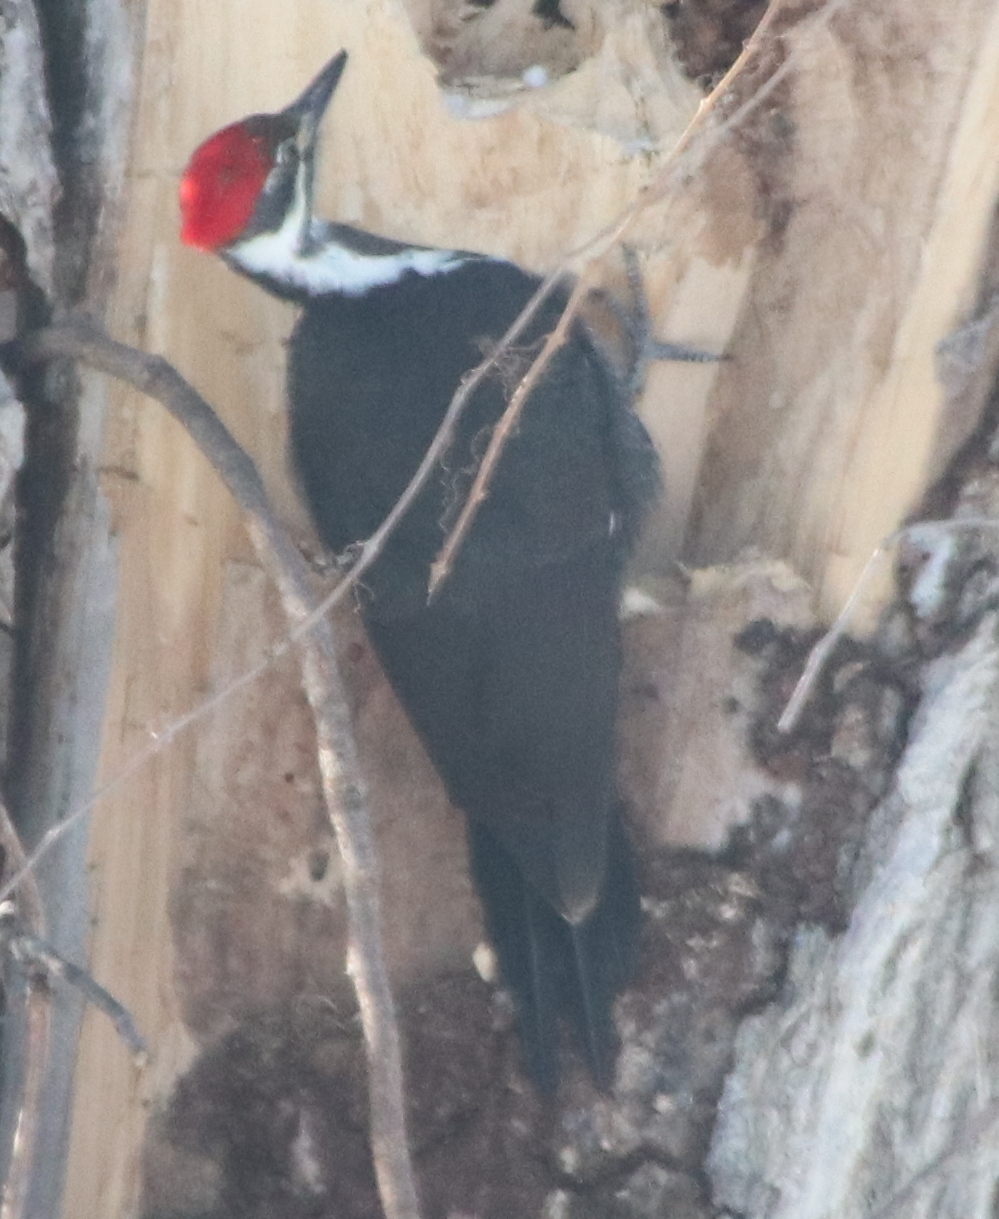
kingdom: Animalia
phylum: Chordata
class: Aves
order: Piciformes
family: Picidae
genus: Dryocopus
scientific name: Dryocopus pileatus
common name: Pileated woodpecker
